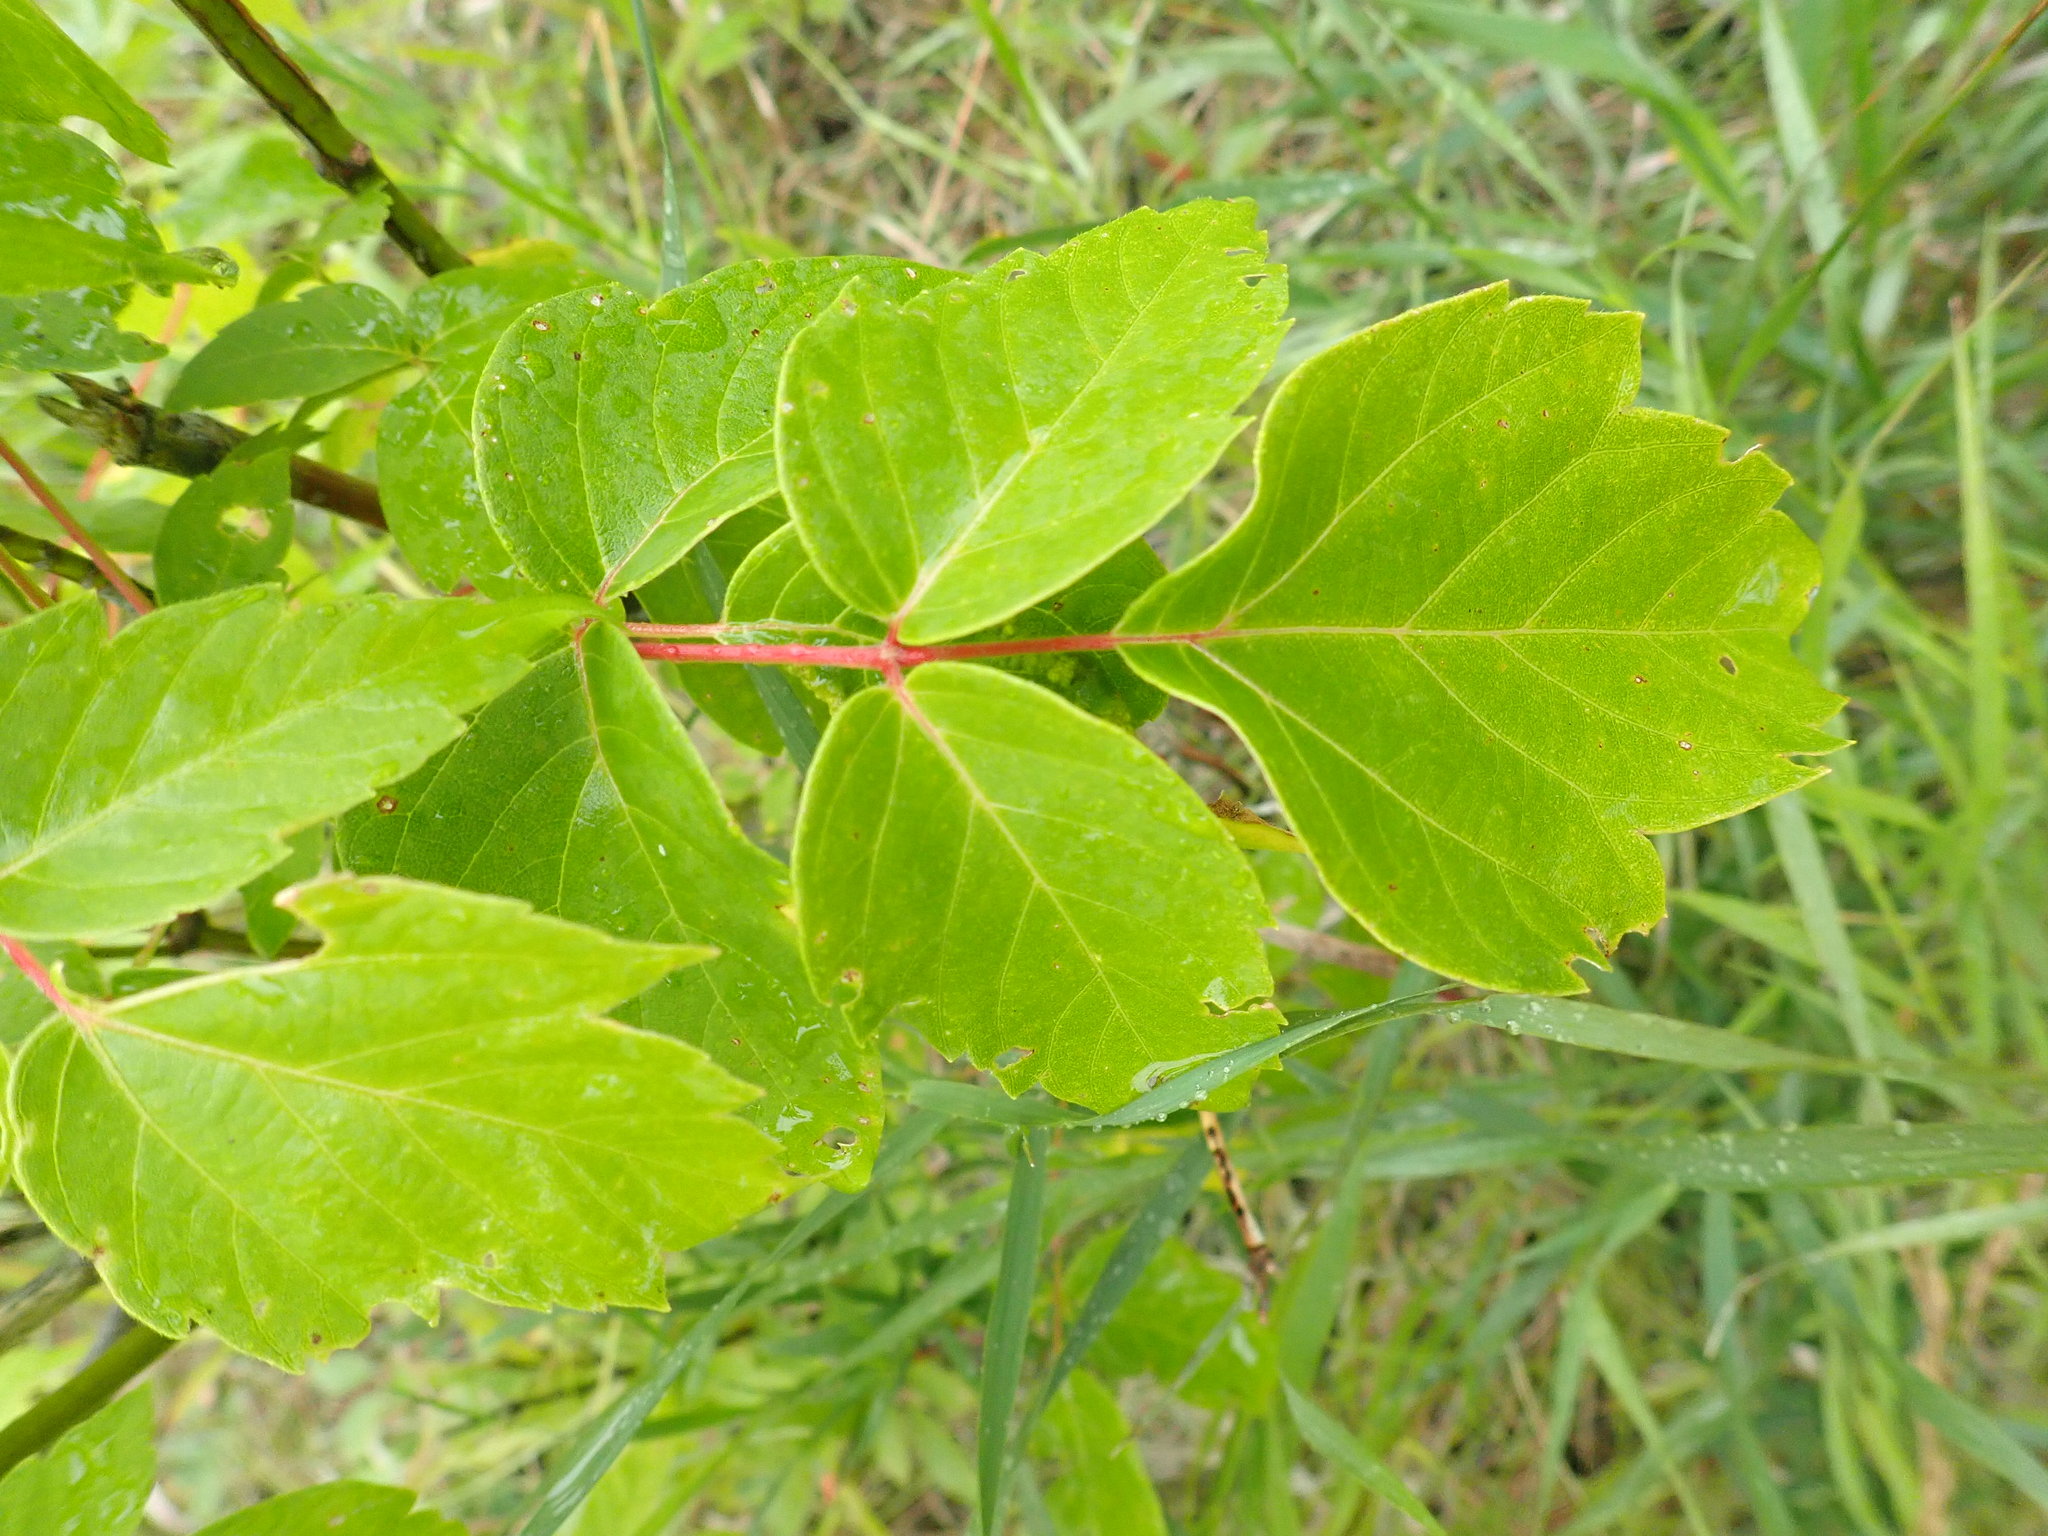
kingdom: Plantae
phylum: Tracheophyta
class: Magnoliopsida
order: Sapindales
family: Sapindaceae
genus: Acer
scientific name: Acer negundo
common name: Ashleaf maple
